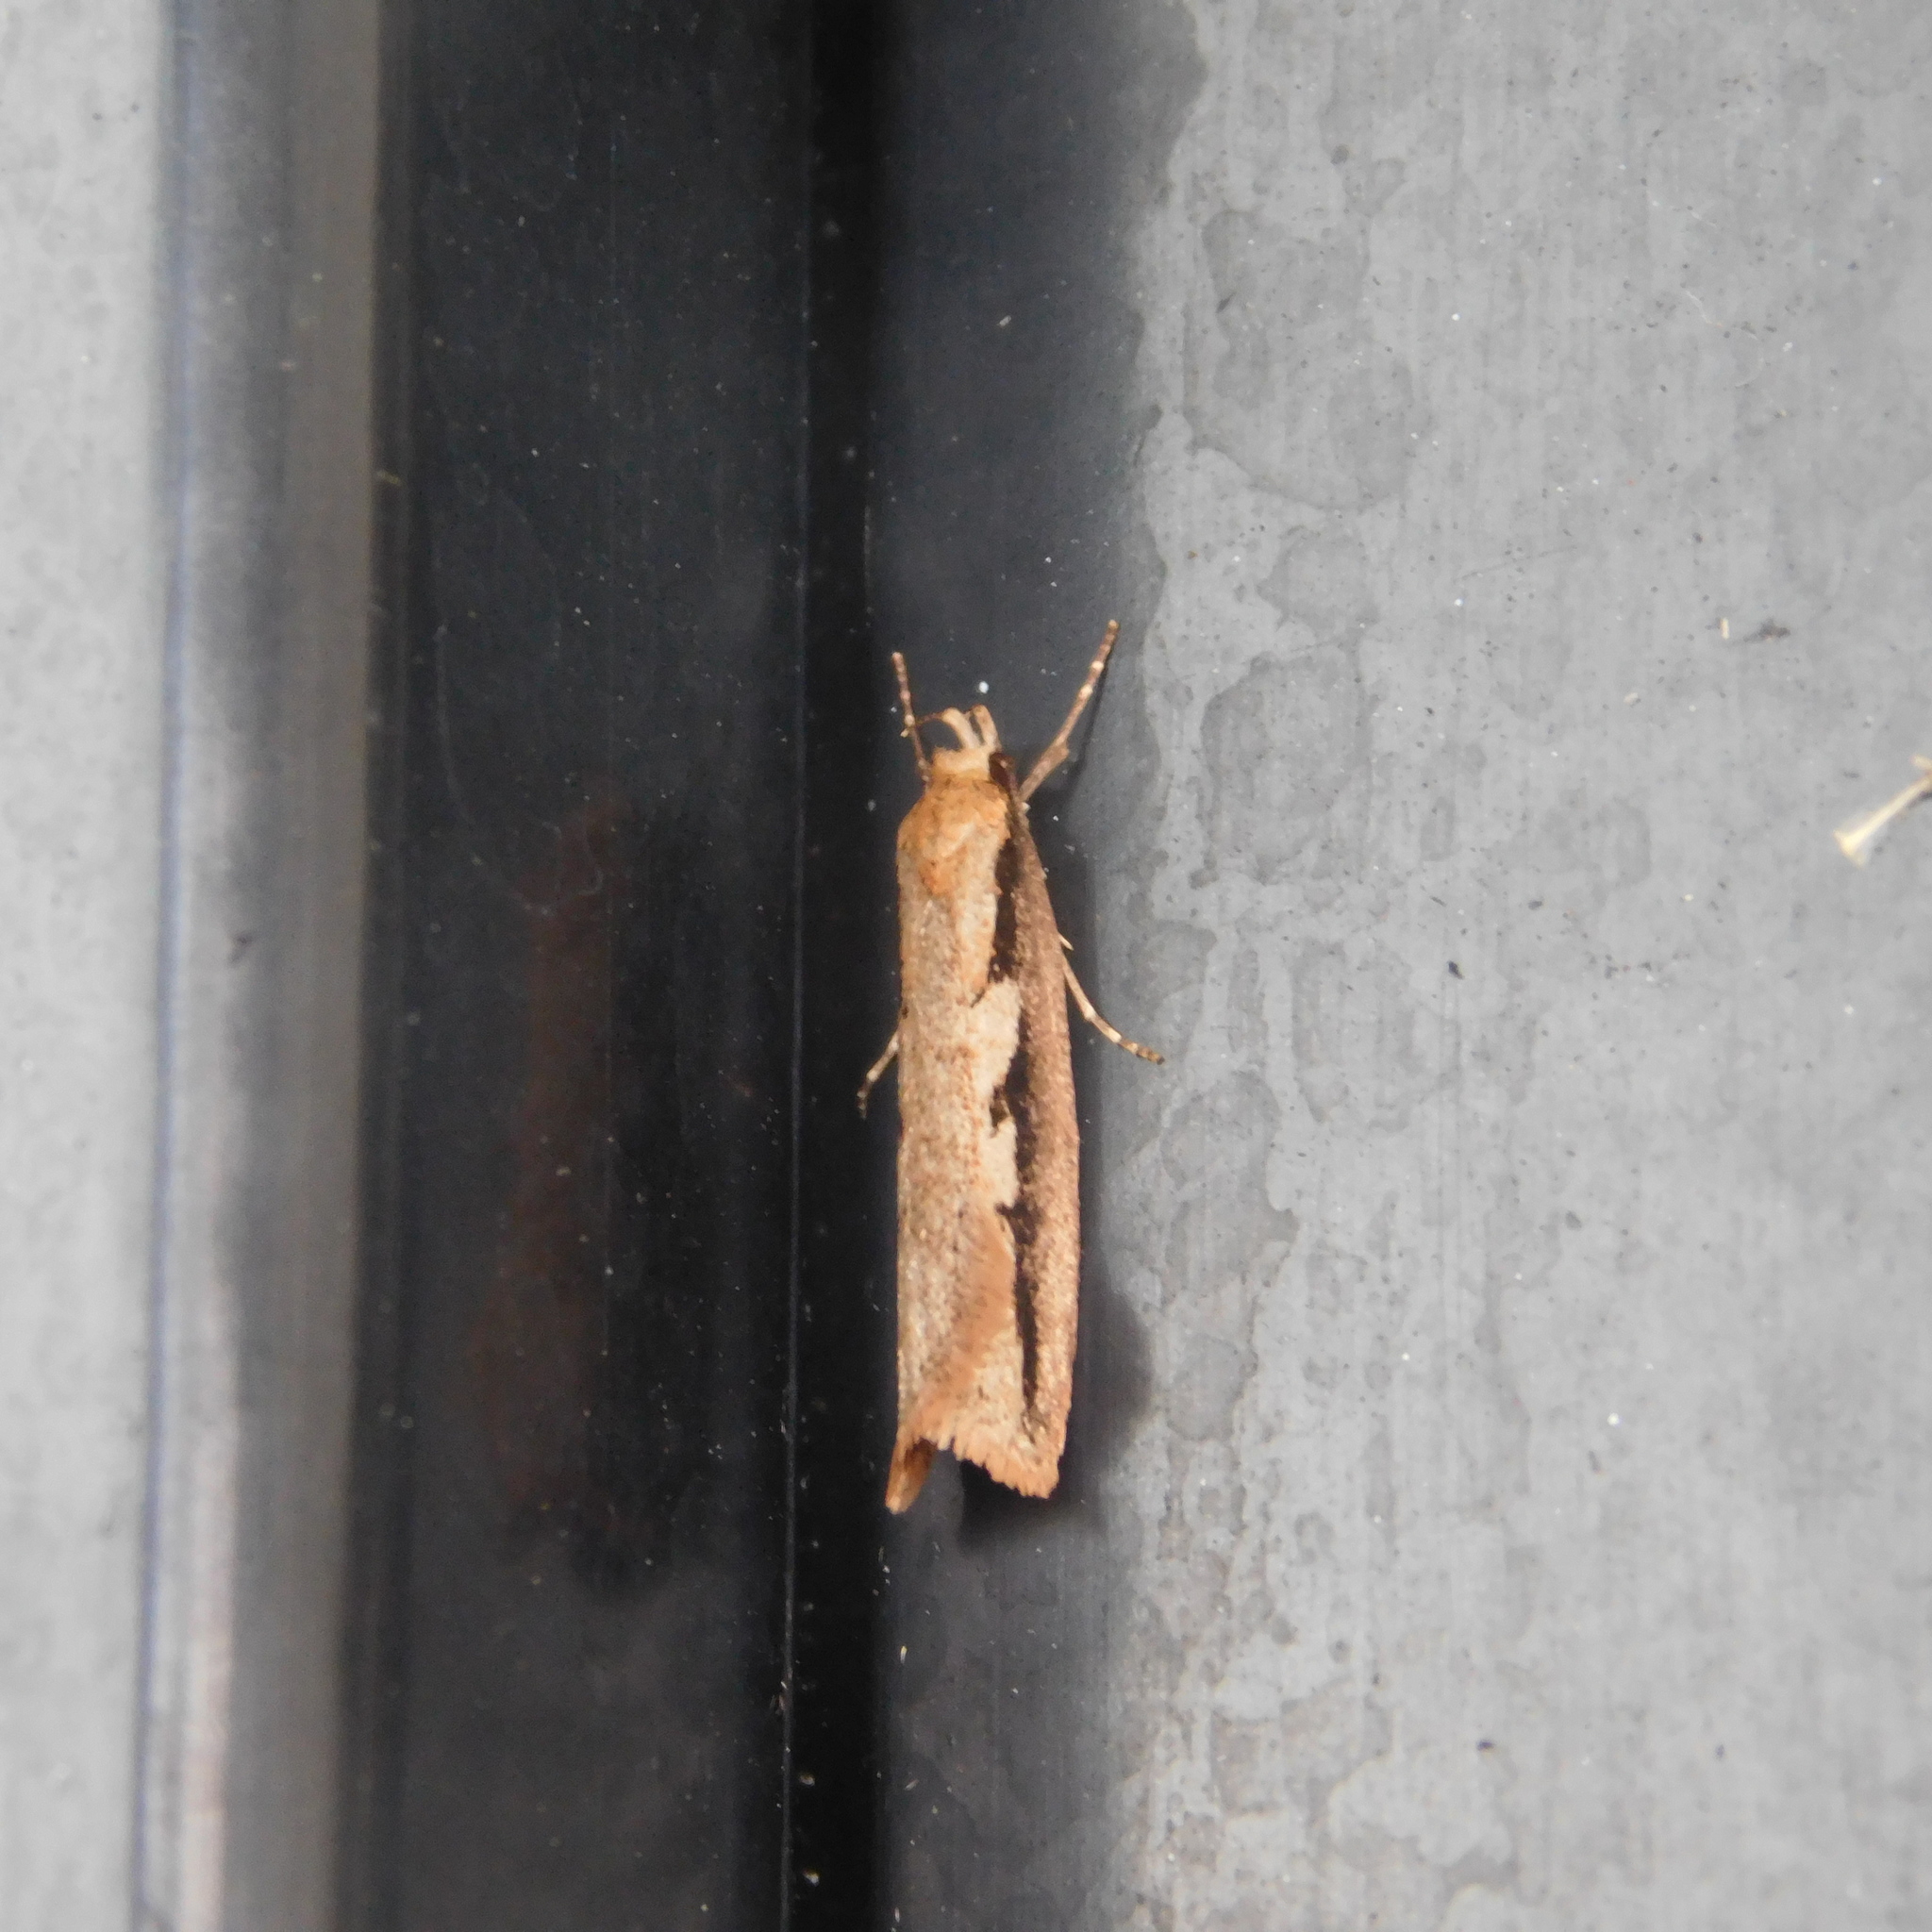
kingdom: Animalia
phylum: Arthropoda
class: Insecta
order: Lepidoptera
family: Oecophoridae
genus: Leptocroca
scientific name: Leptocroca sanguinolenta
